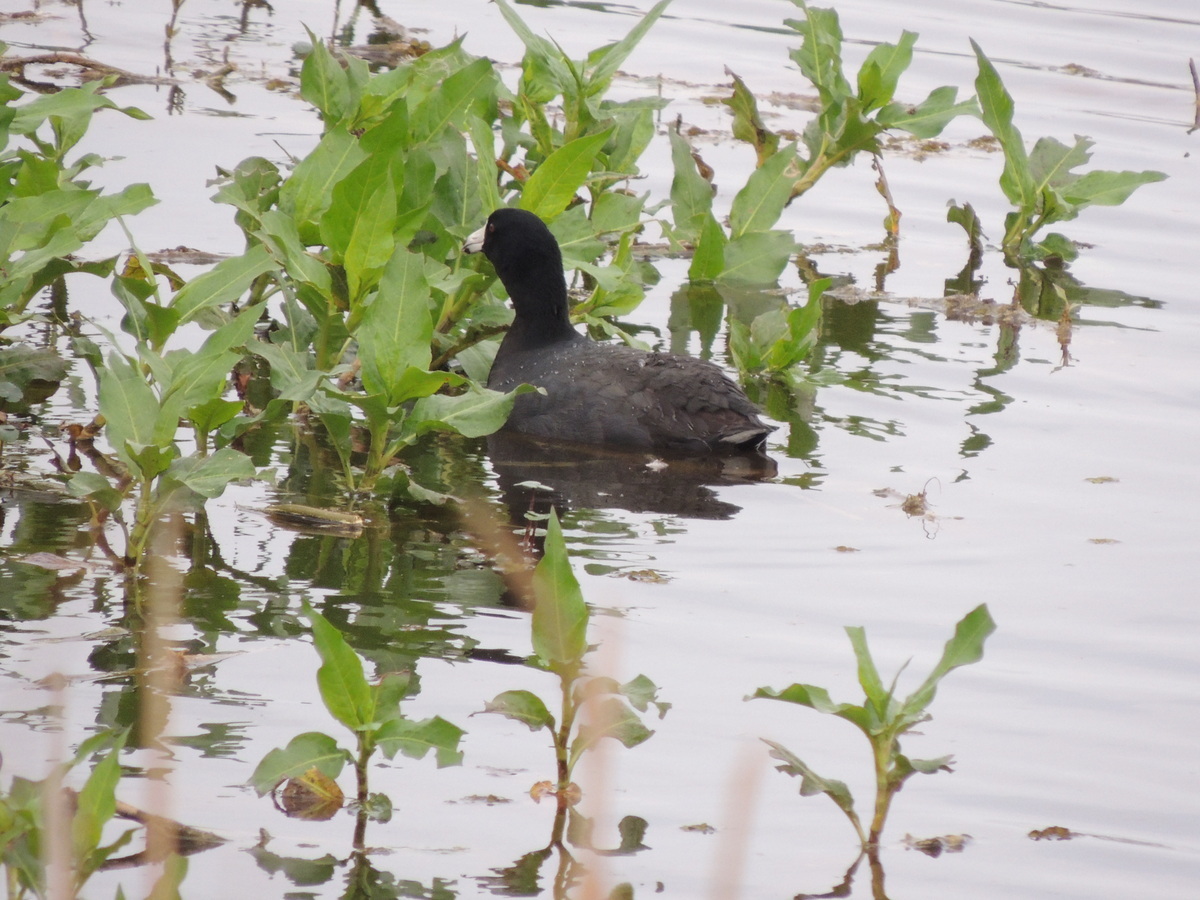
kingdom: Animalia
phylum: Chordata
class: Aves
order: Gruiformes
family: Rallidae
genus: Fulica
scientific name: Fulica americana
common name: American coot
